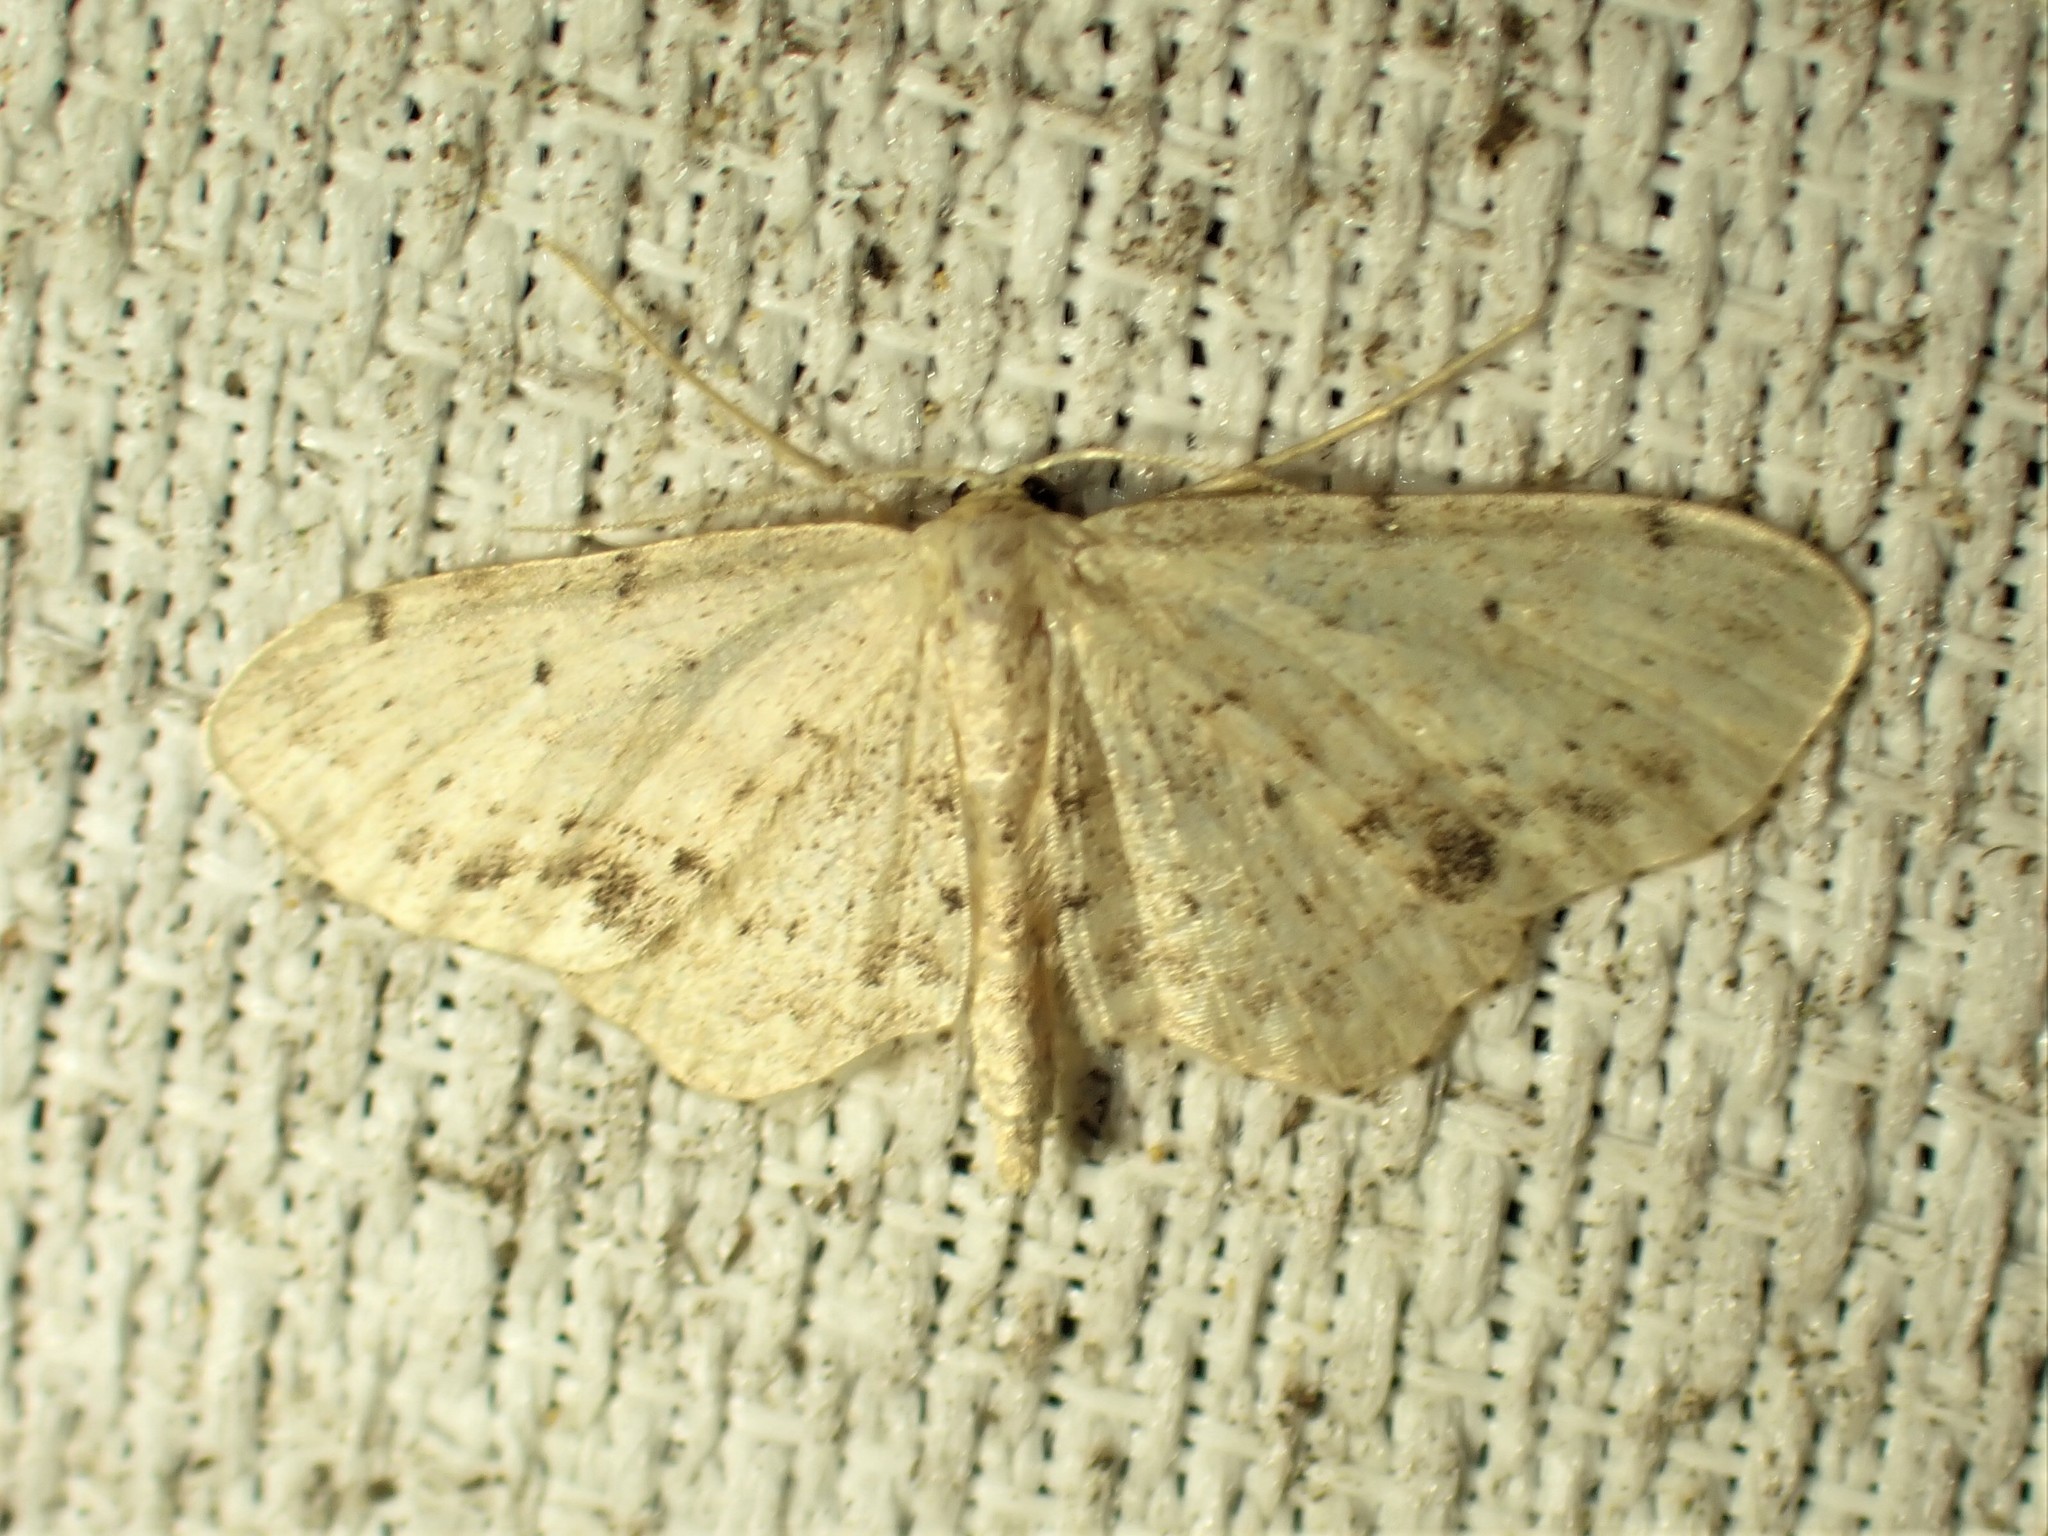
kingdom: Animalia
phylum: Arthropoda
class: Insecta
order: Lepidoptera
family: Geometridae
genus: Idaea
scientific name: Idaea dimidiata
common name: Single-dotted wave
